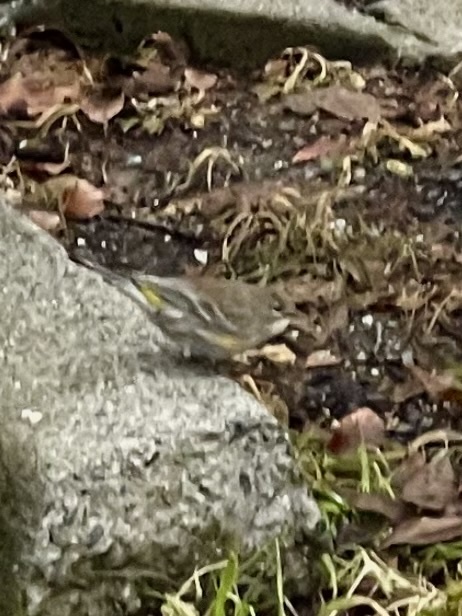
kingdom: Animalia
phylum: Chordata
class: Aves
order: Passeriformes
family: Parulidae
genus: Setophaga
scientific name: Setophaga coronata
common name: Myrtle warbler
